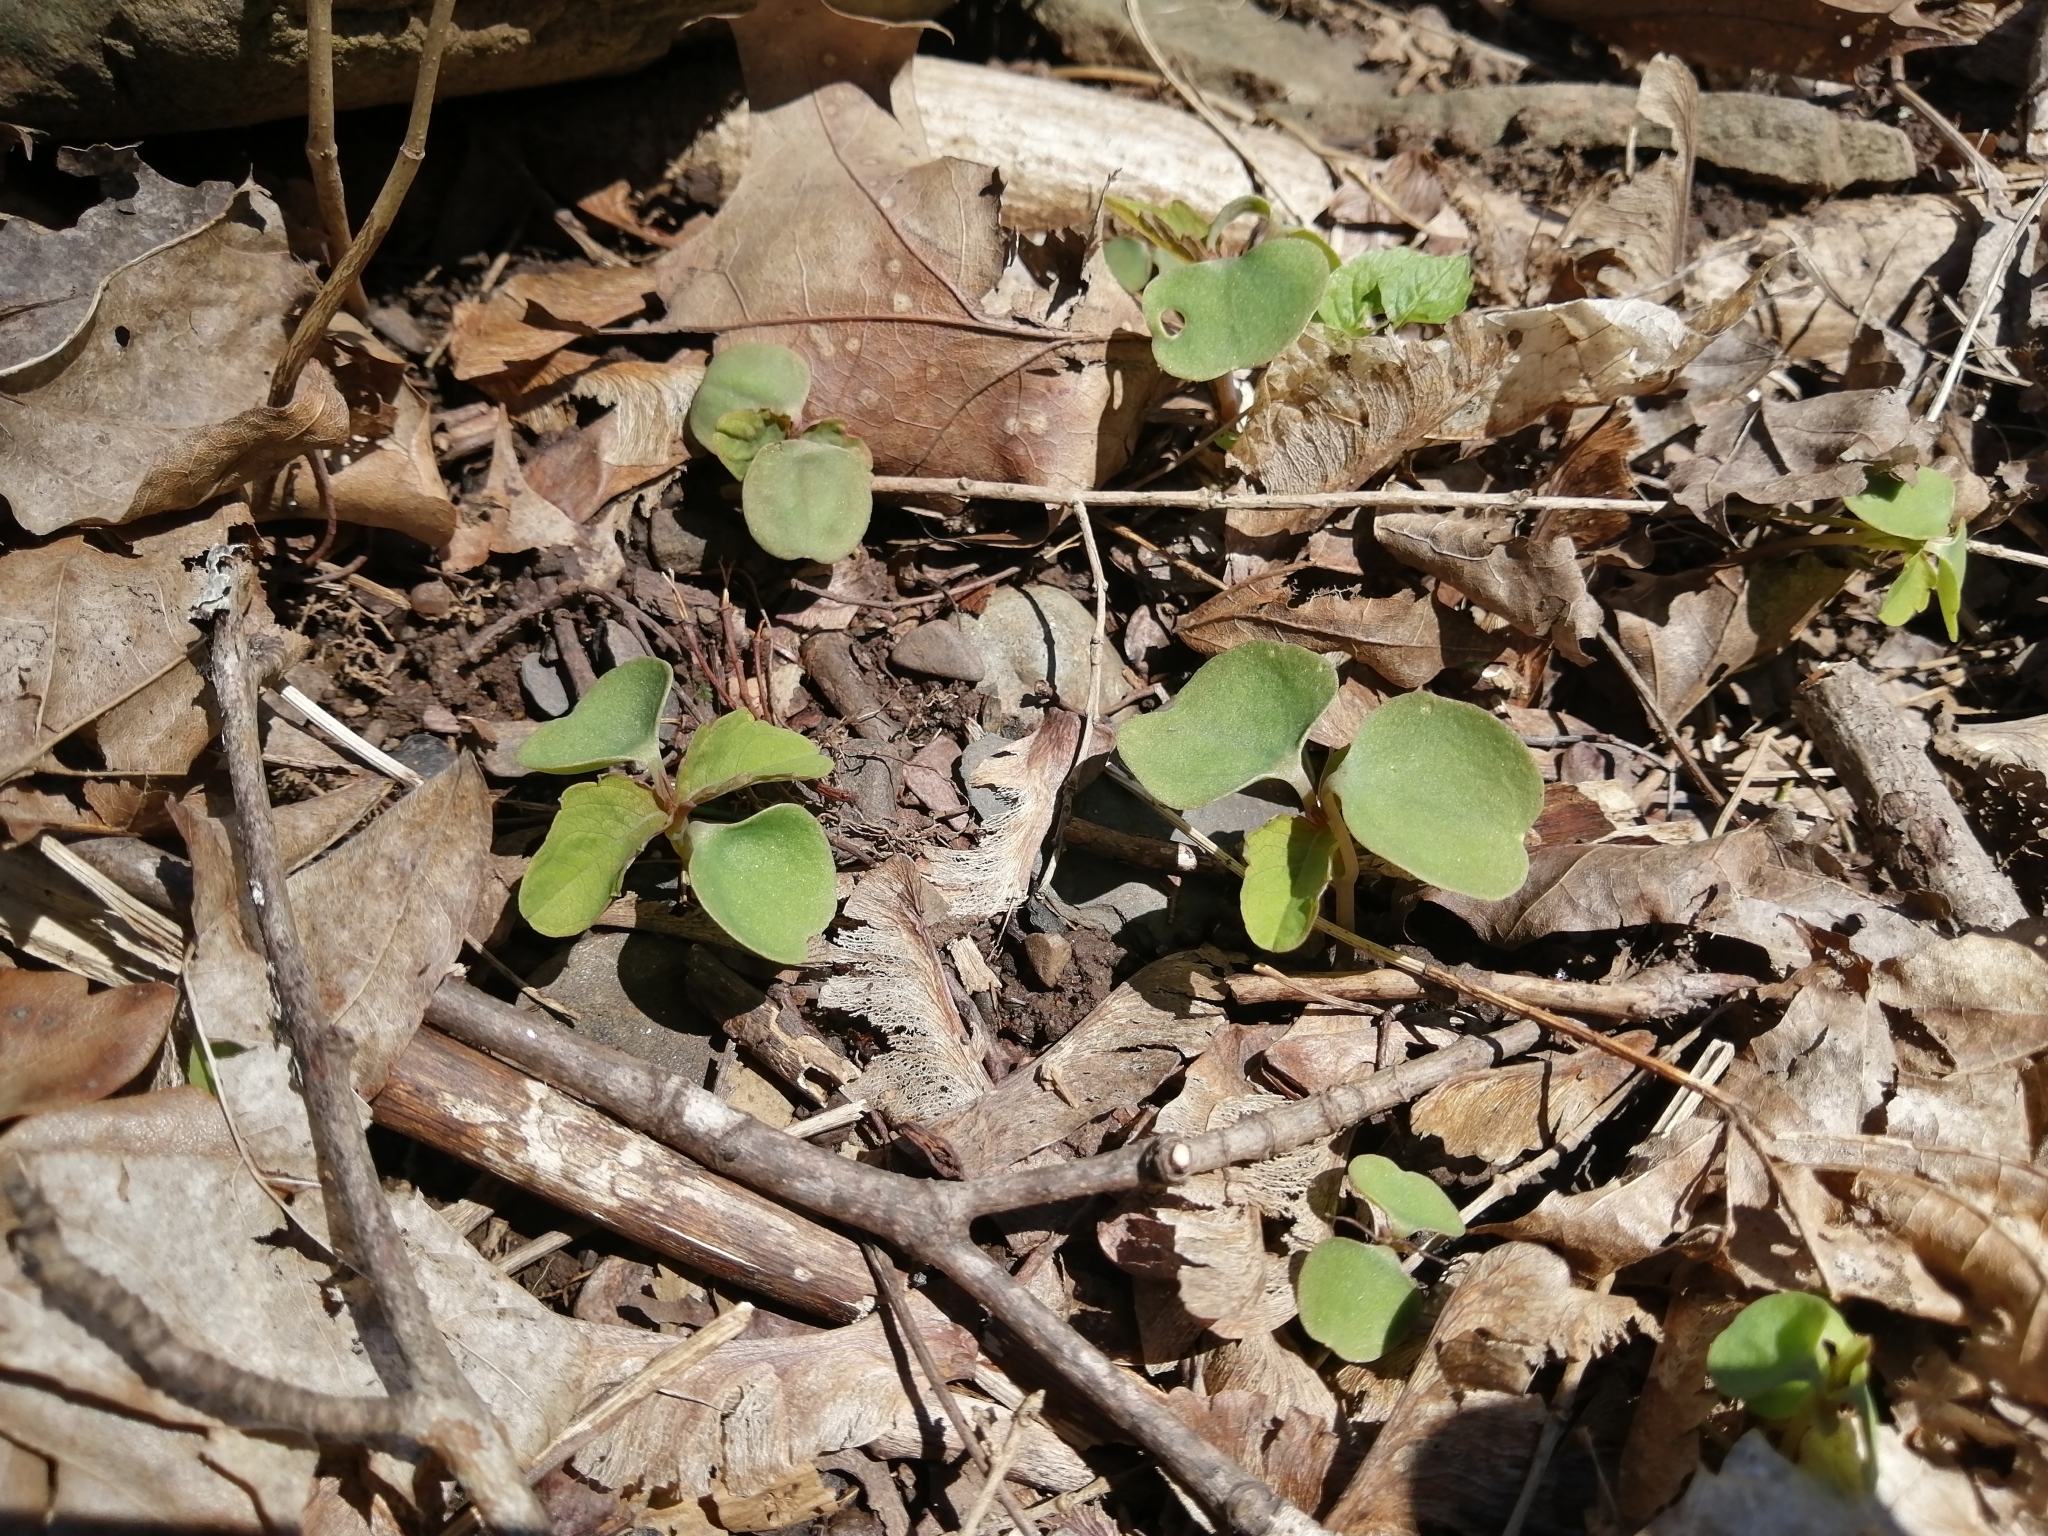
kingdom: Plantae
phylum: Tracheophyta
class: Magnoliopsida
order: Ericales
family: Balsaminaceae
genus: Impatiens
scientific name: Impatiens capensis
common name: Orange balsam
